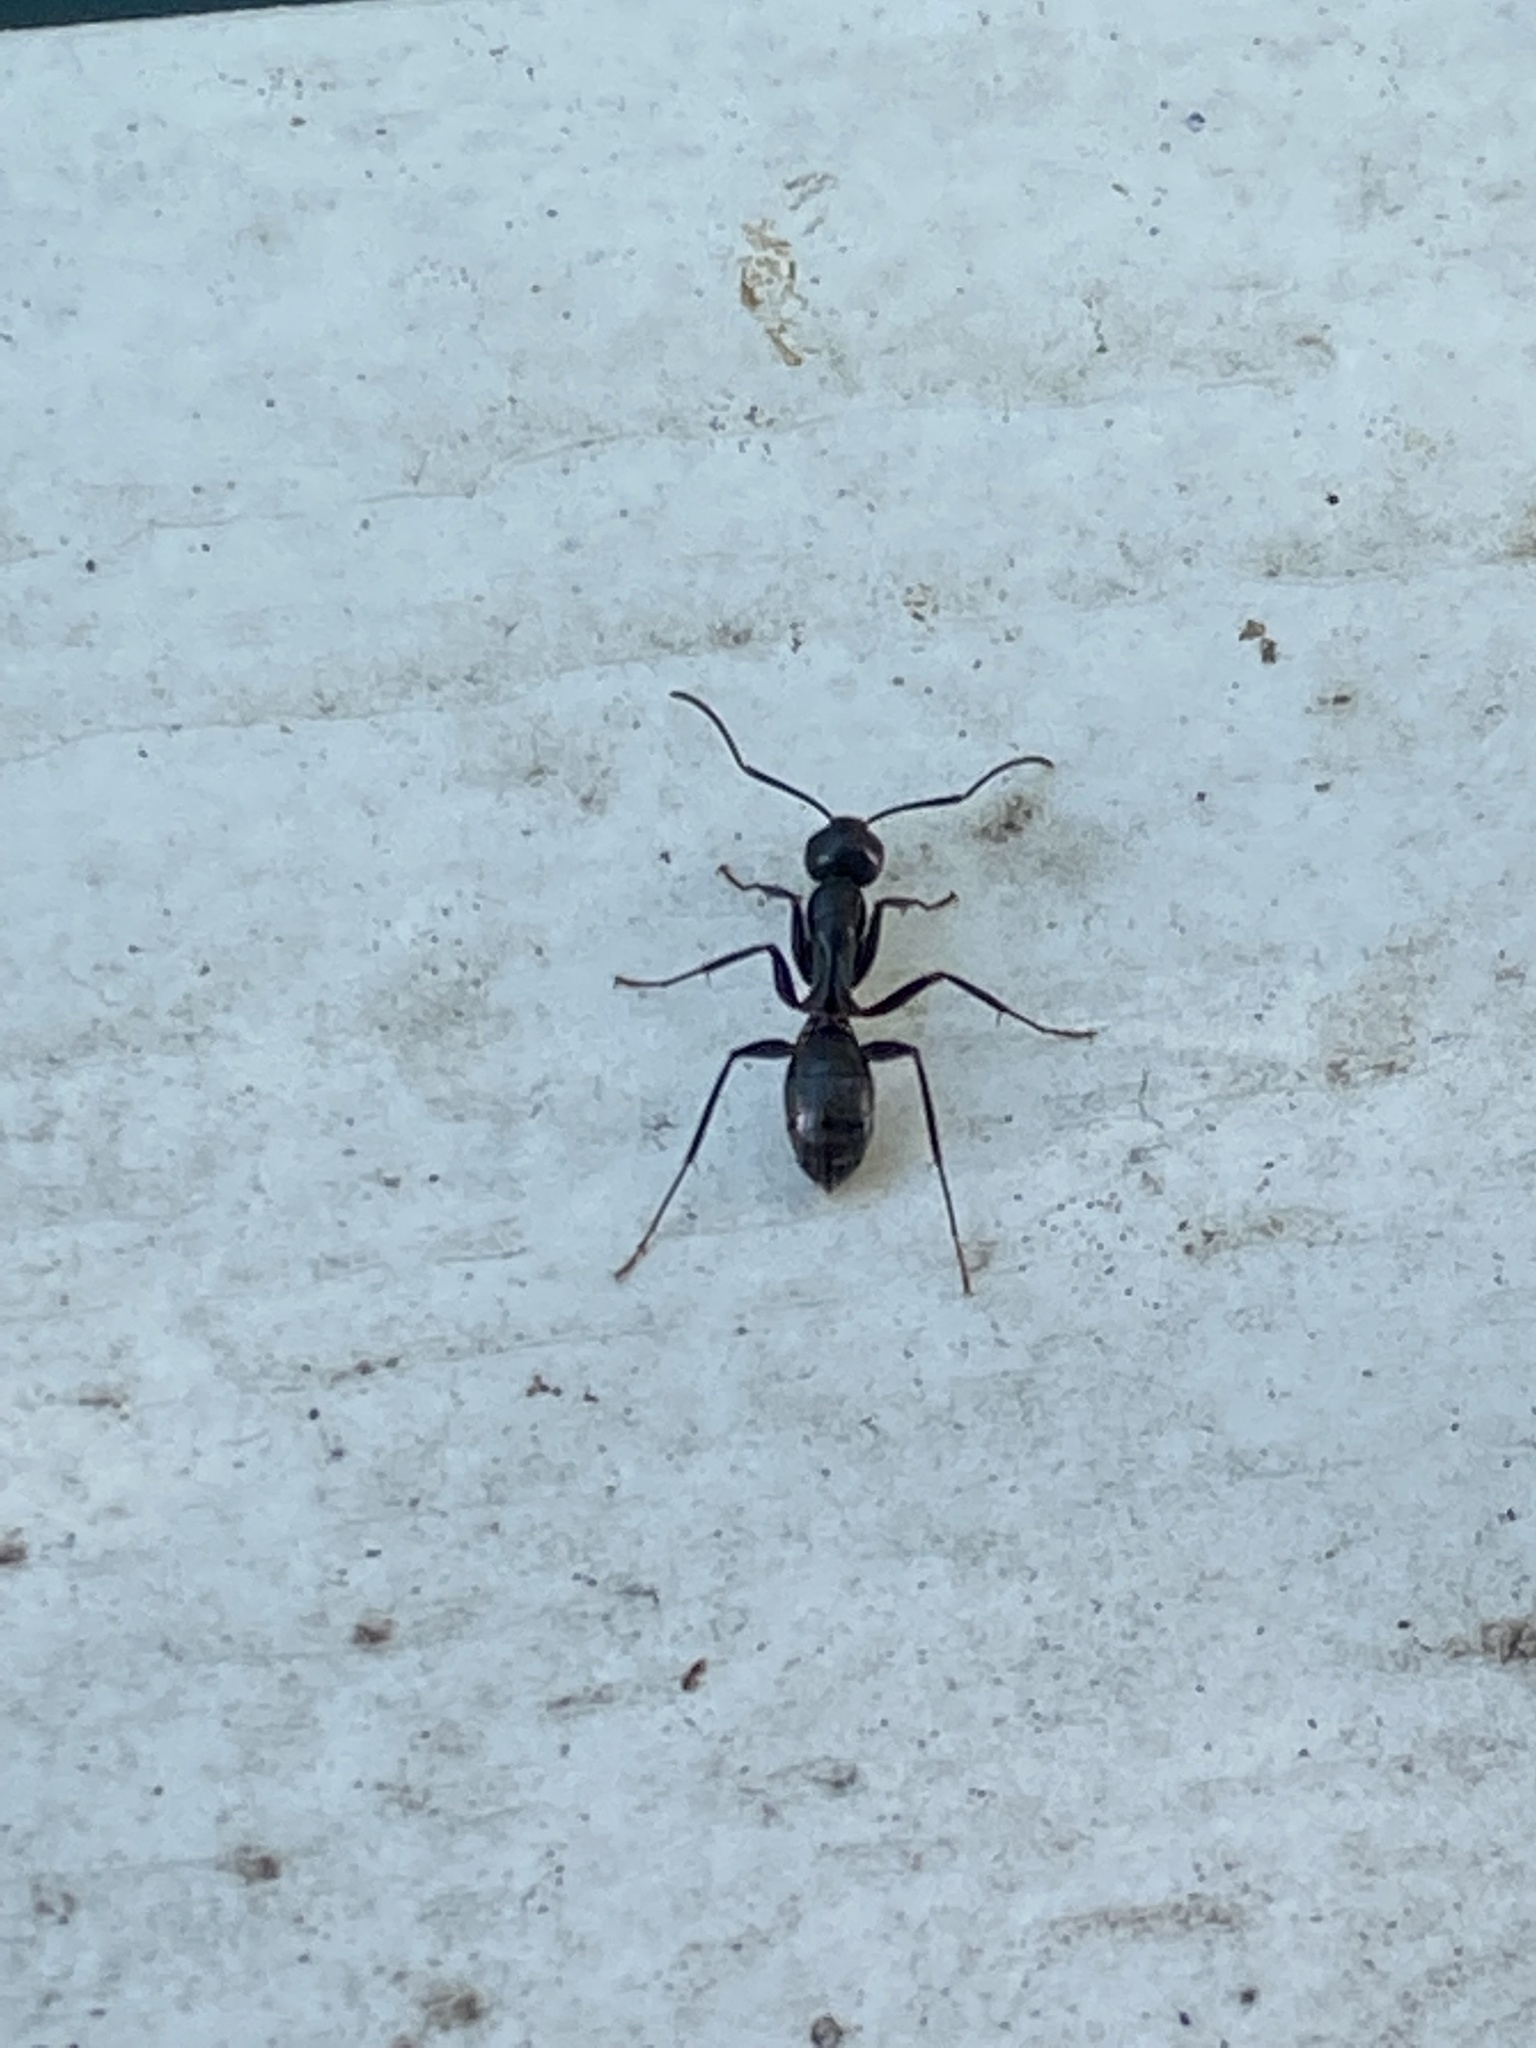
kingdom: Animalia
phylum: Arthropoda
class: Insecta
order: Hymenoptera
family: Formicidae
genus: Camponotus
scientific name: Camponotus pennsylvanicus
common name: Black carpenter ant
